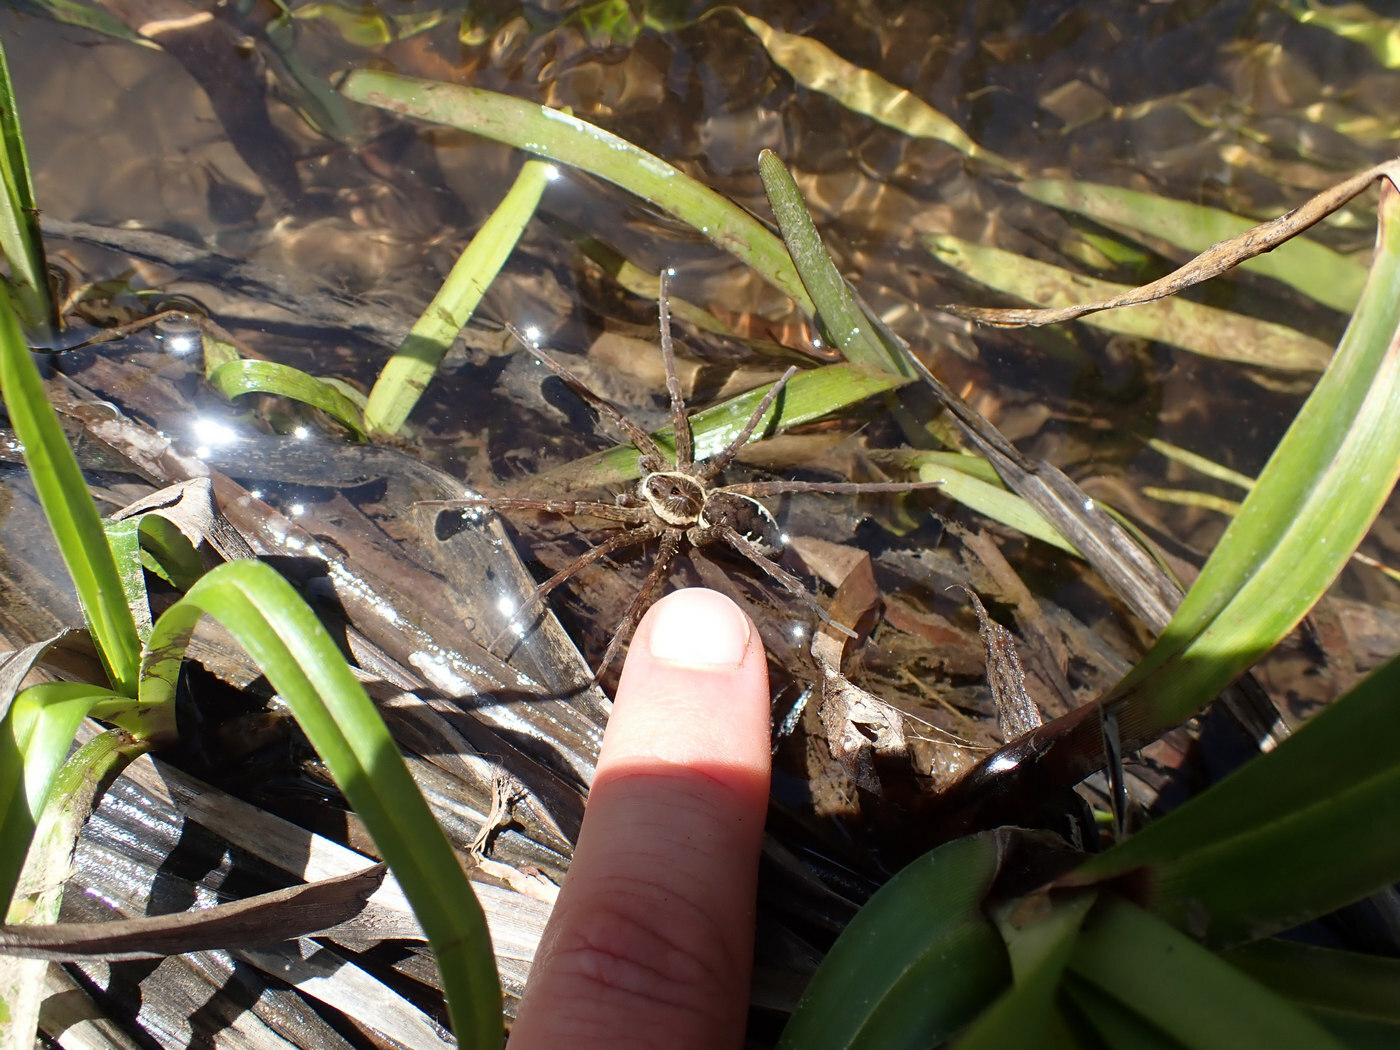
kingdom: Animalia
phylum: Arthropoda
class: Arachnida
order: Araneae
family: Pisauridae
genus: Dolomedes
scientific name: Dolomedes vittatus
